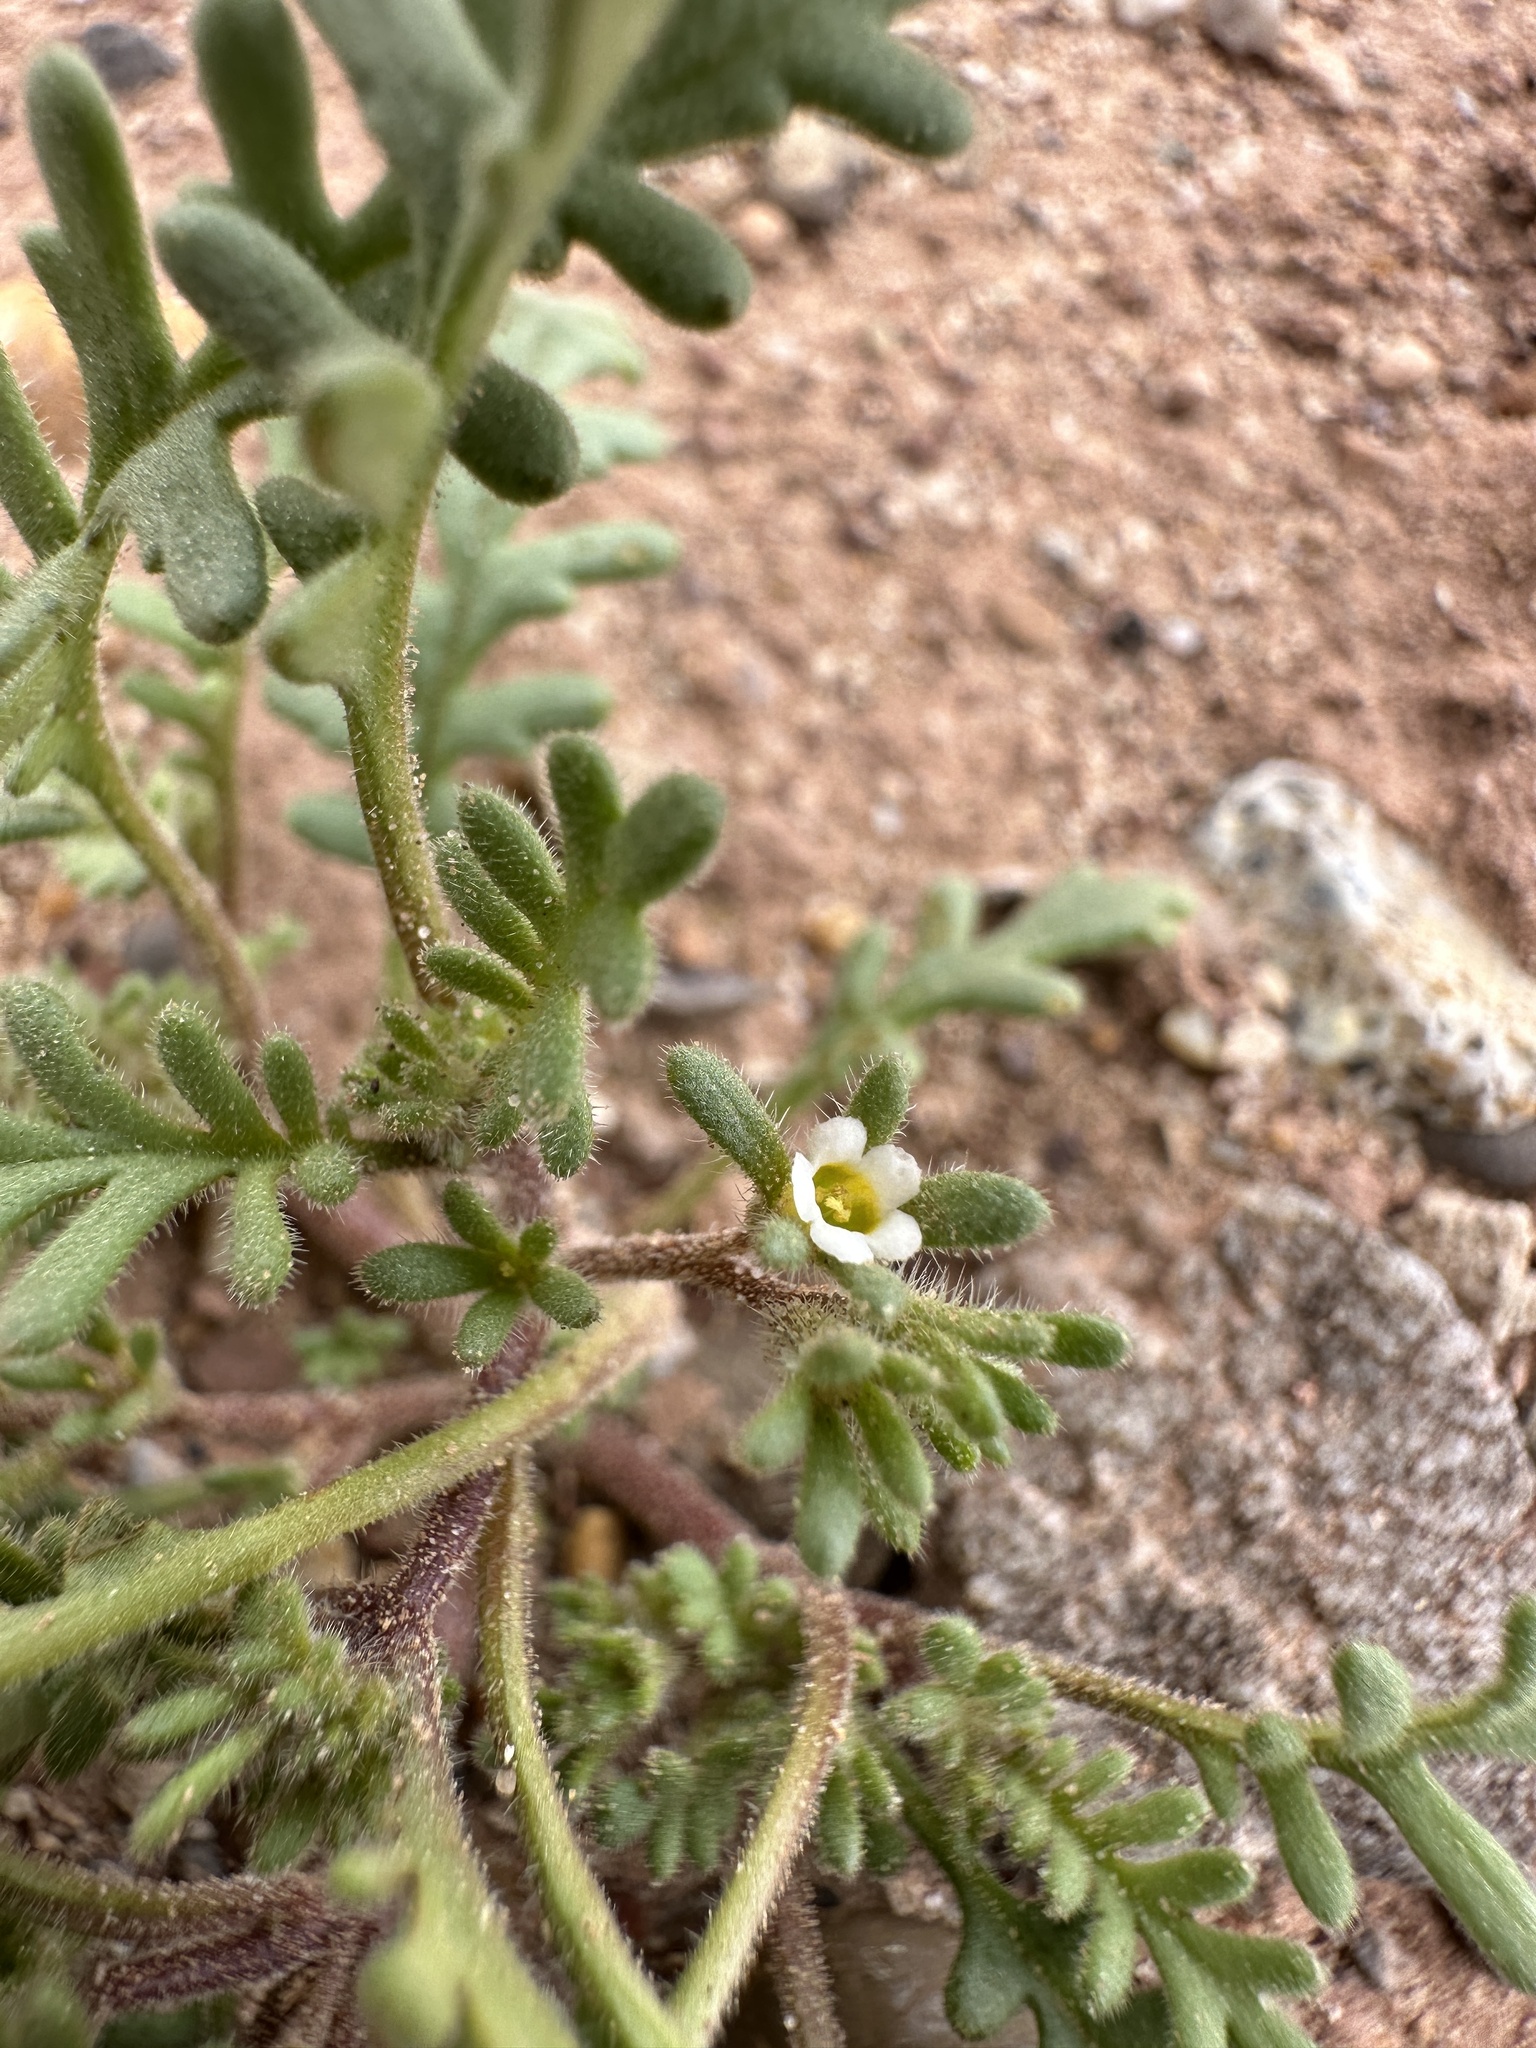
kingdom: Plantae
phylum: Tracheophyta
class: Magnoliopsida
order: Boraginales
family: Hydrophyllaceae
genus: Phacelia
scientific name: Phacelia ivesiana
